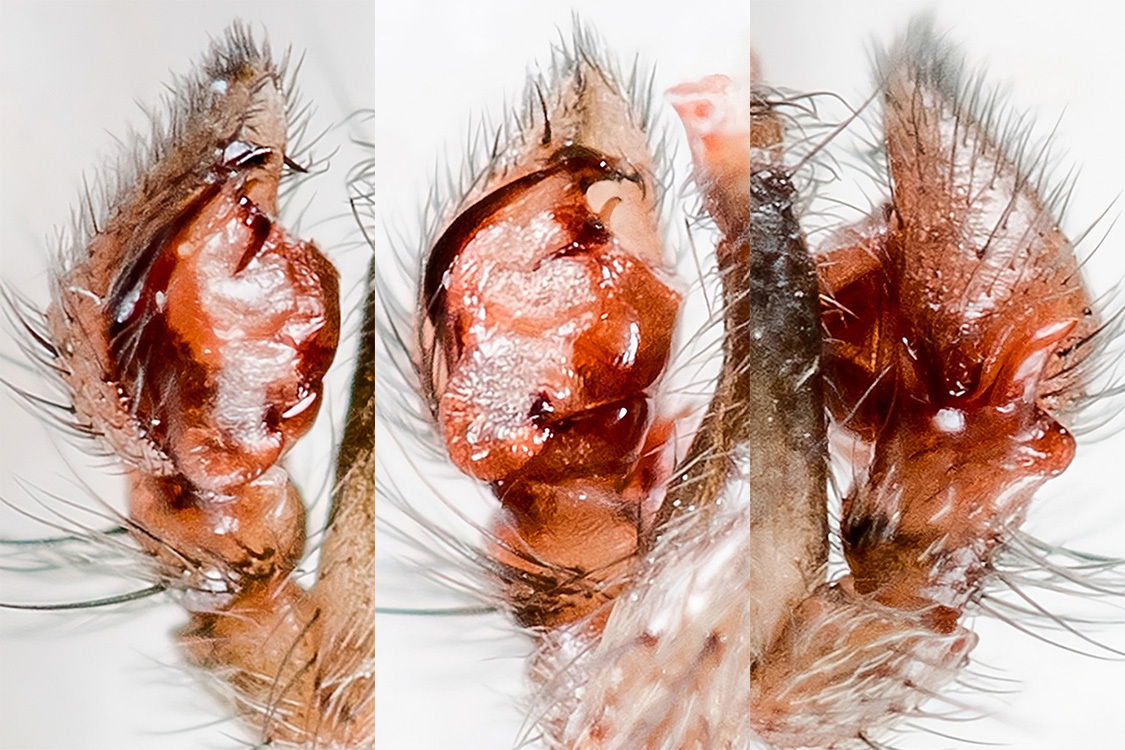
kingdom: Animalia
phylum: Arthropoda
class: Arachnida
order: Araneae
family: Gnaphosidae
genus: Berlandina
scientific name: Berlandina spasskyi
